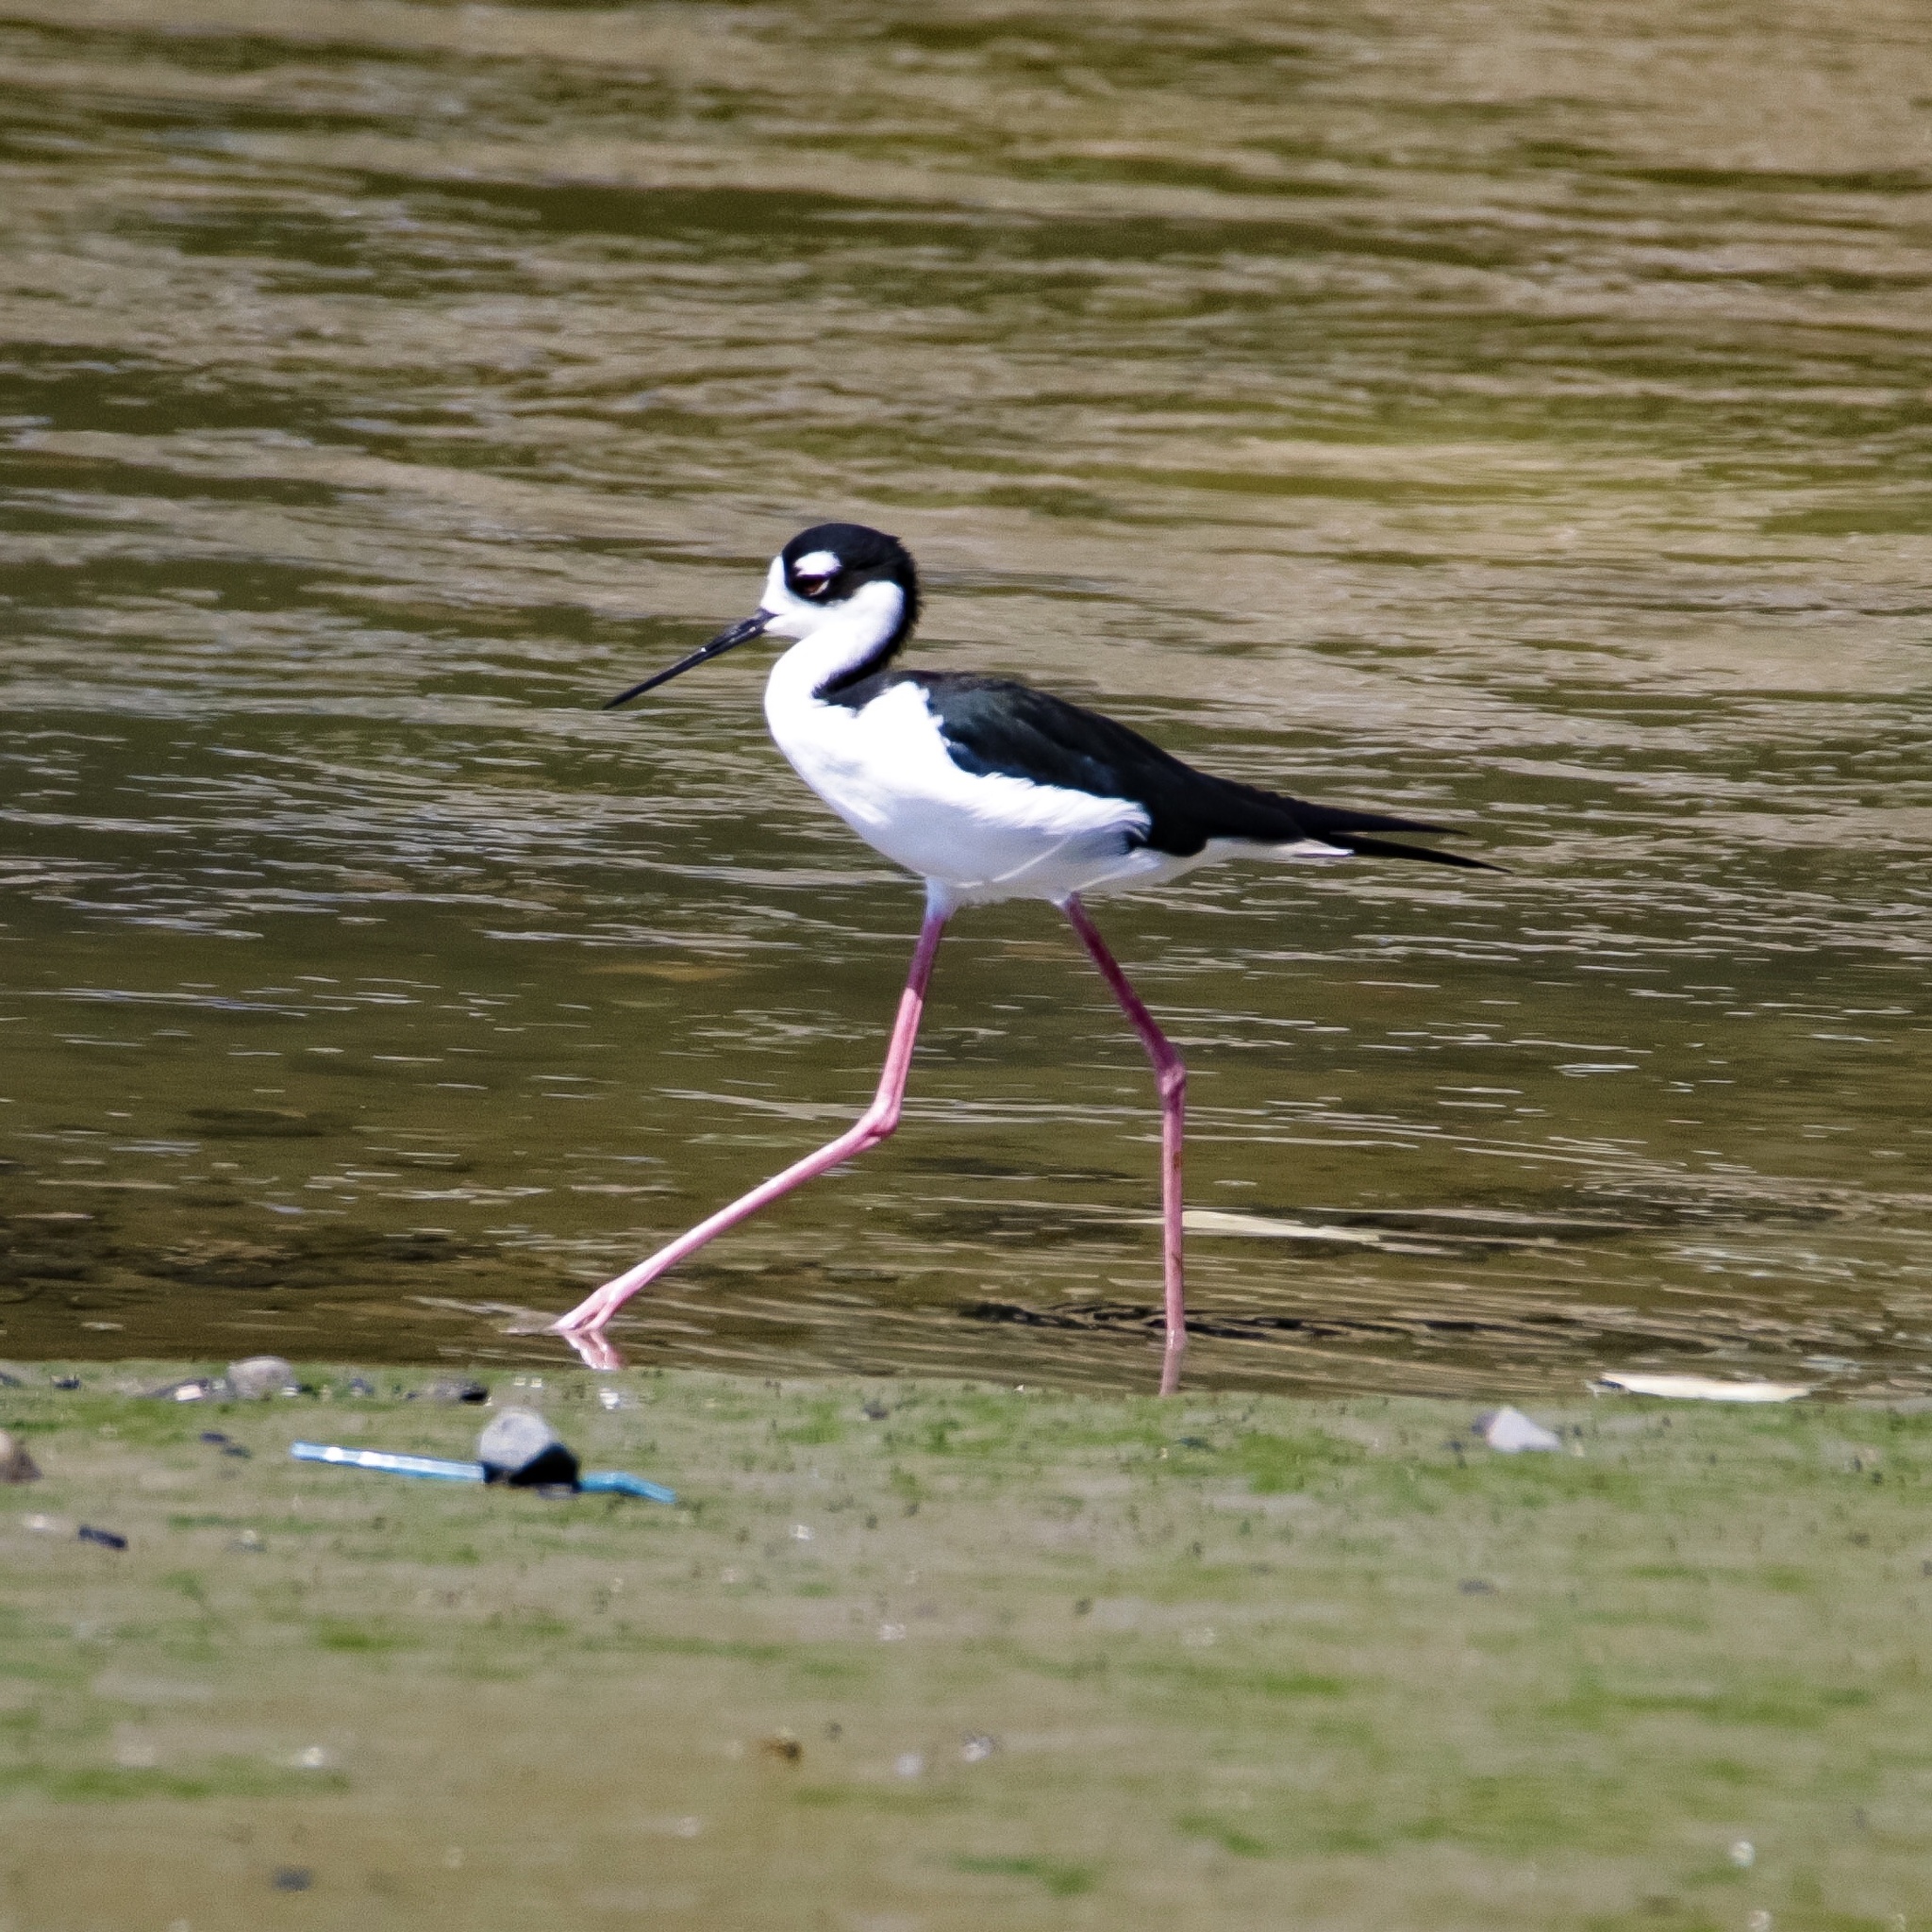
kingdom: Animalia
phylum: Chordata
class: Aves
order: Charadriiformes
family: Recurvirostridae
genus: Himantopus
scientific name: Himantopus mexicanus
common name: Black-necked stilt
